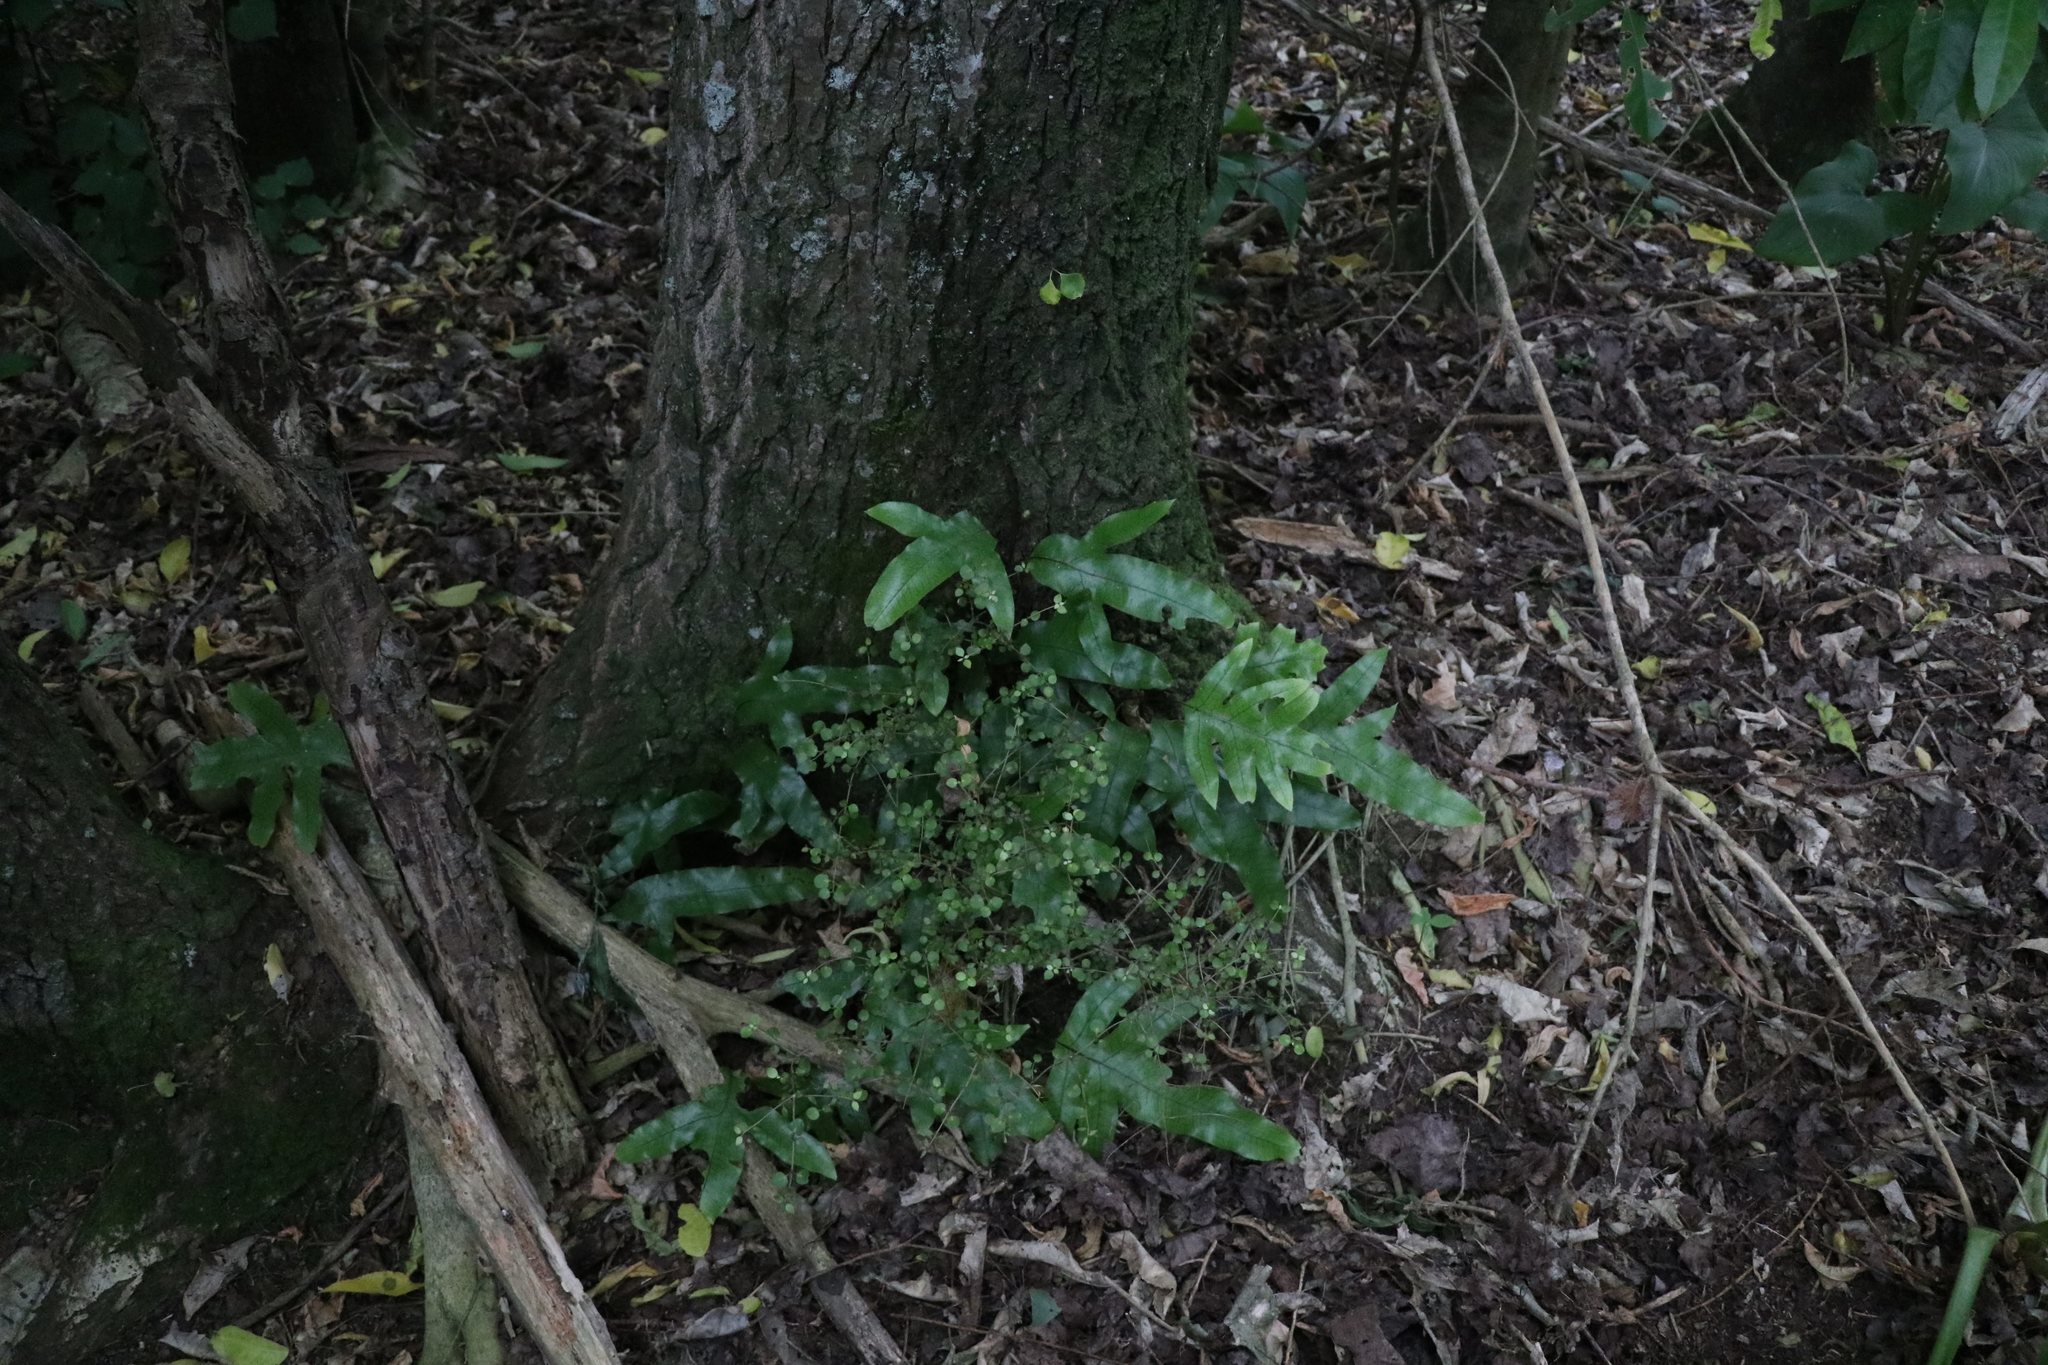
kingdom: Plantae
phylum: Tracheophyta
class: Polypodiopsida
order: Polypodiales
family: Polypodiaceae
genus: Lecanopteris
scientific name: Lecanopteris pustulata
